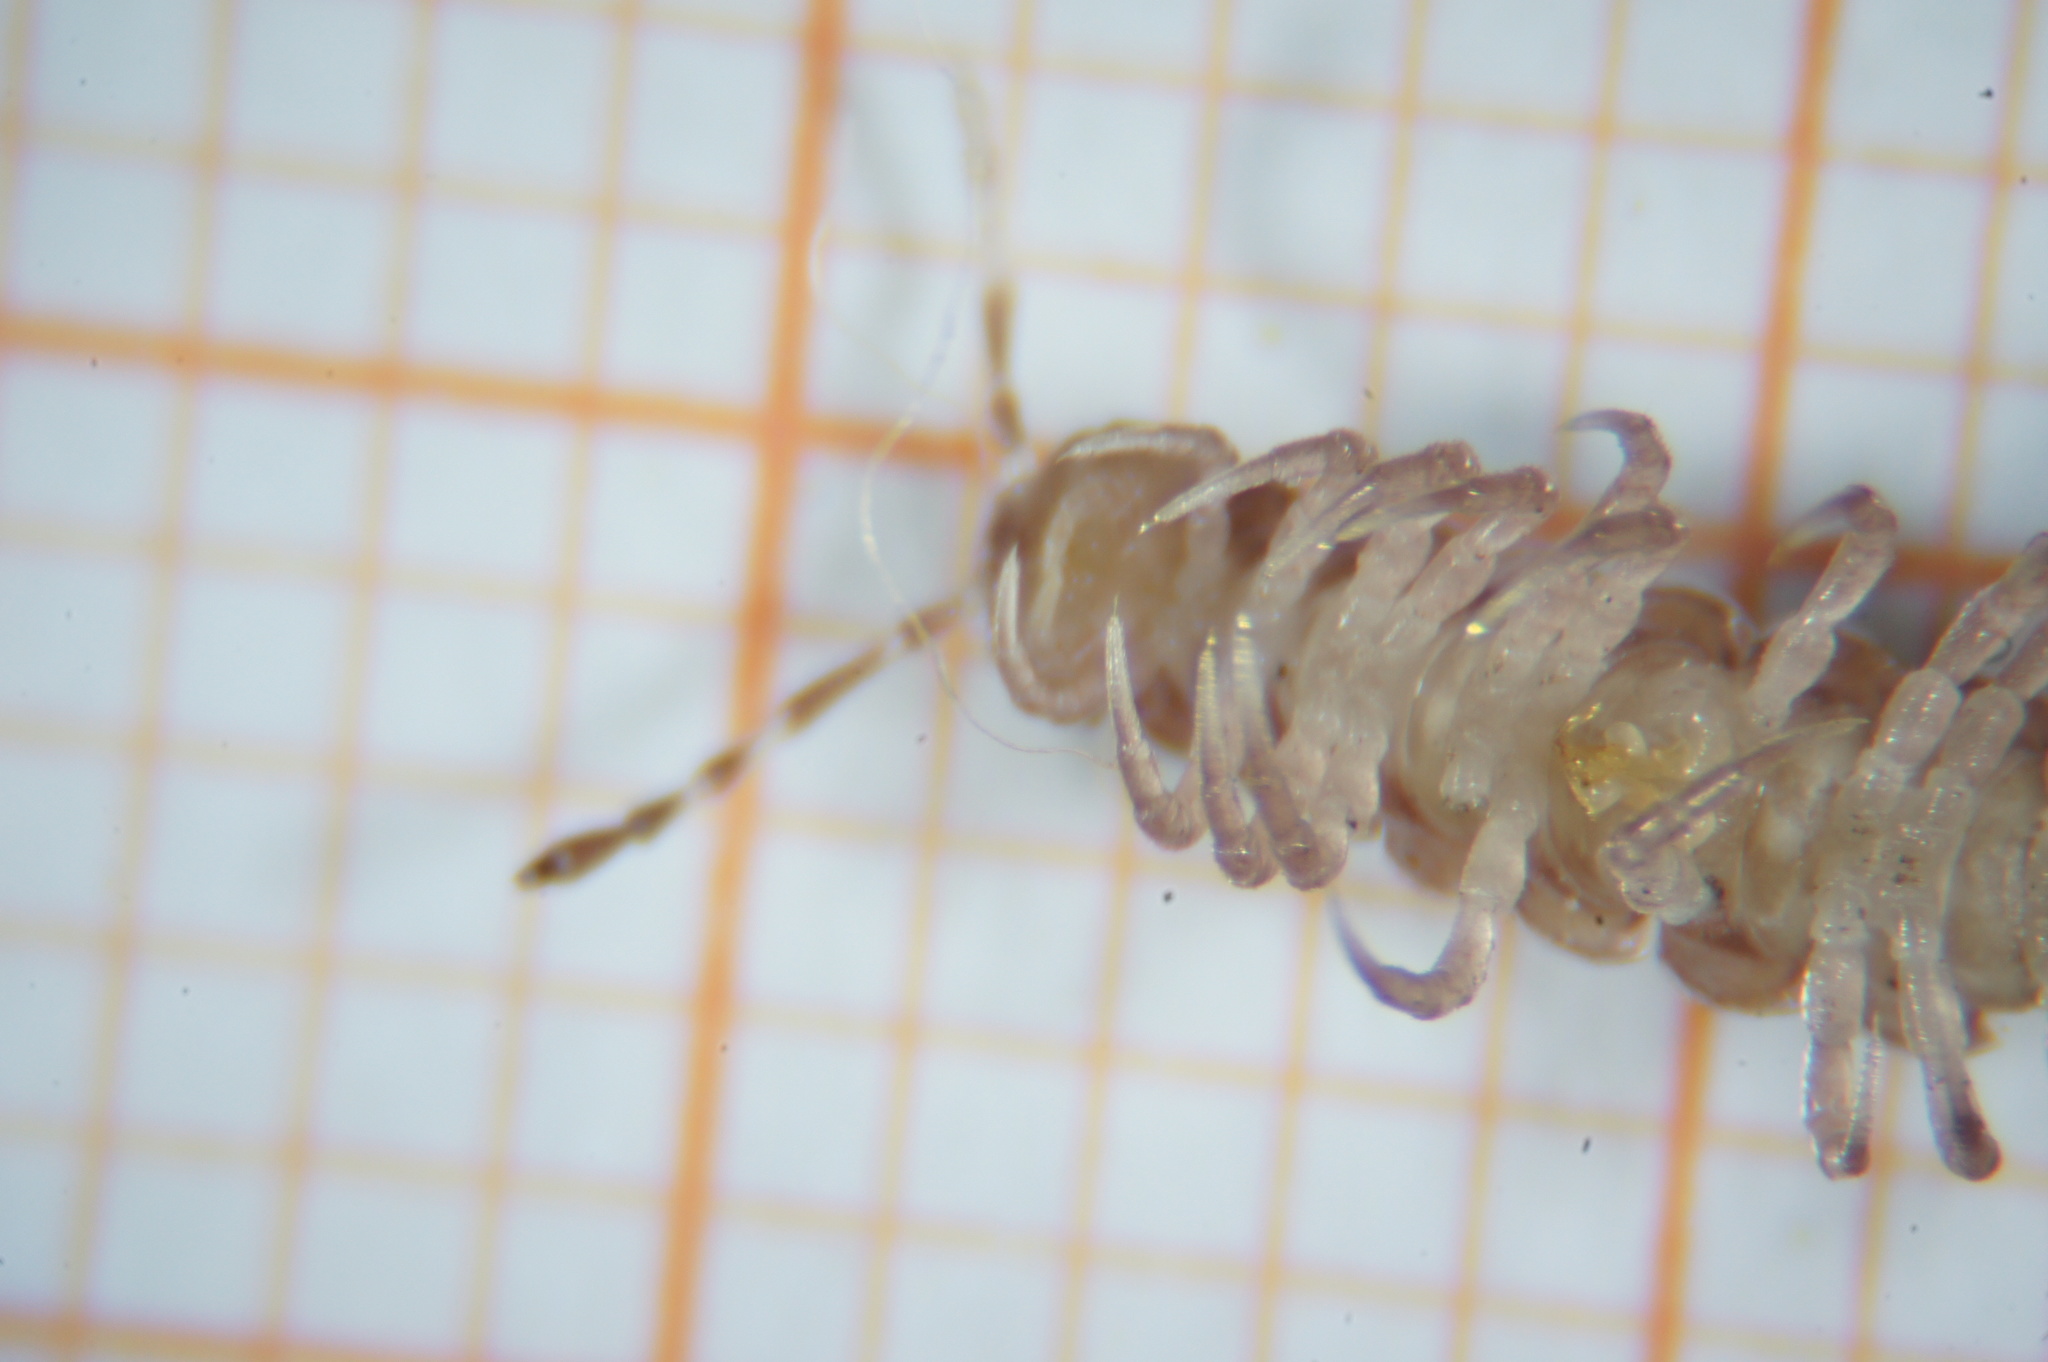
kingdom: Animalia
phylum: Arthropoda
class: Diplopoda
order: Polydesmida
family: Polydesmidae
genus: Polydesmus
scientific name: Polydesmus testaceus
